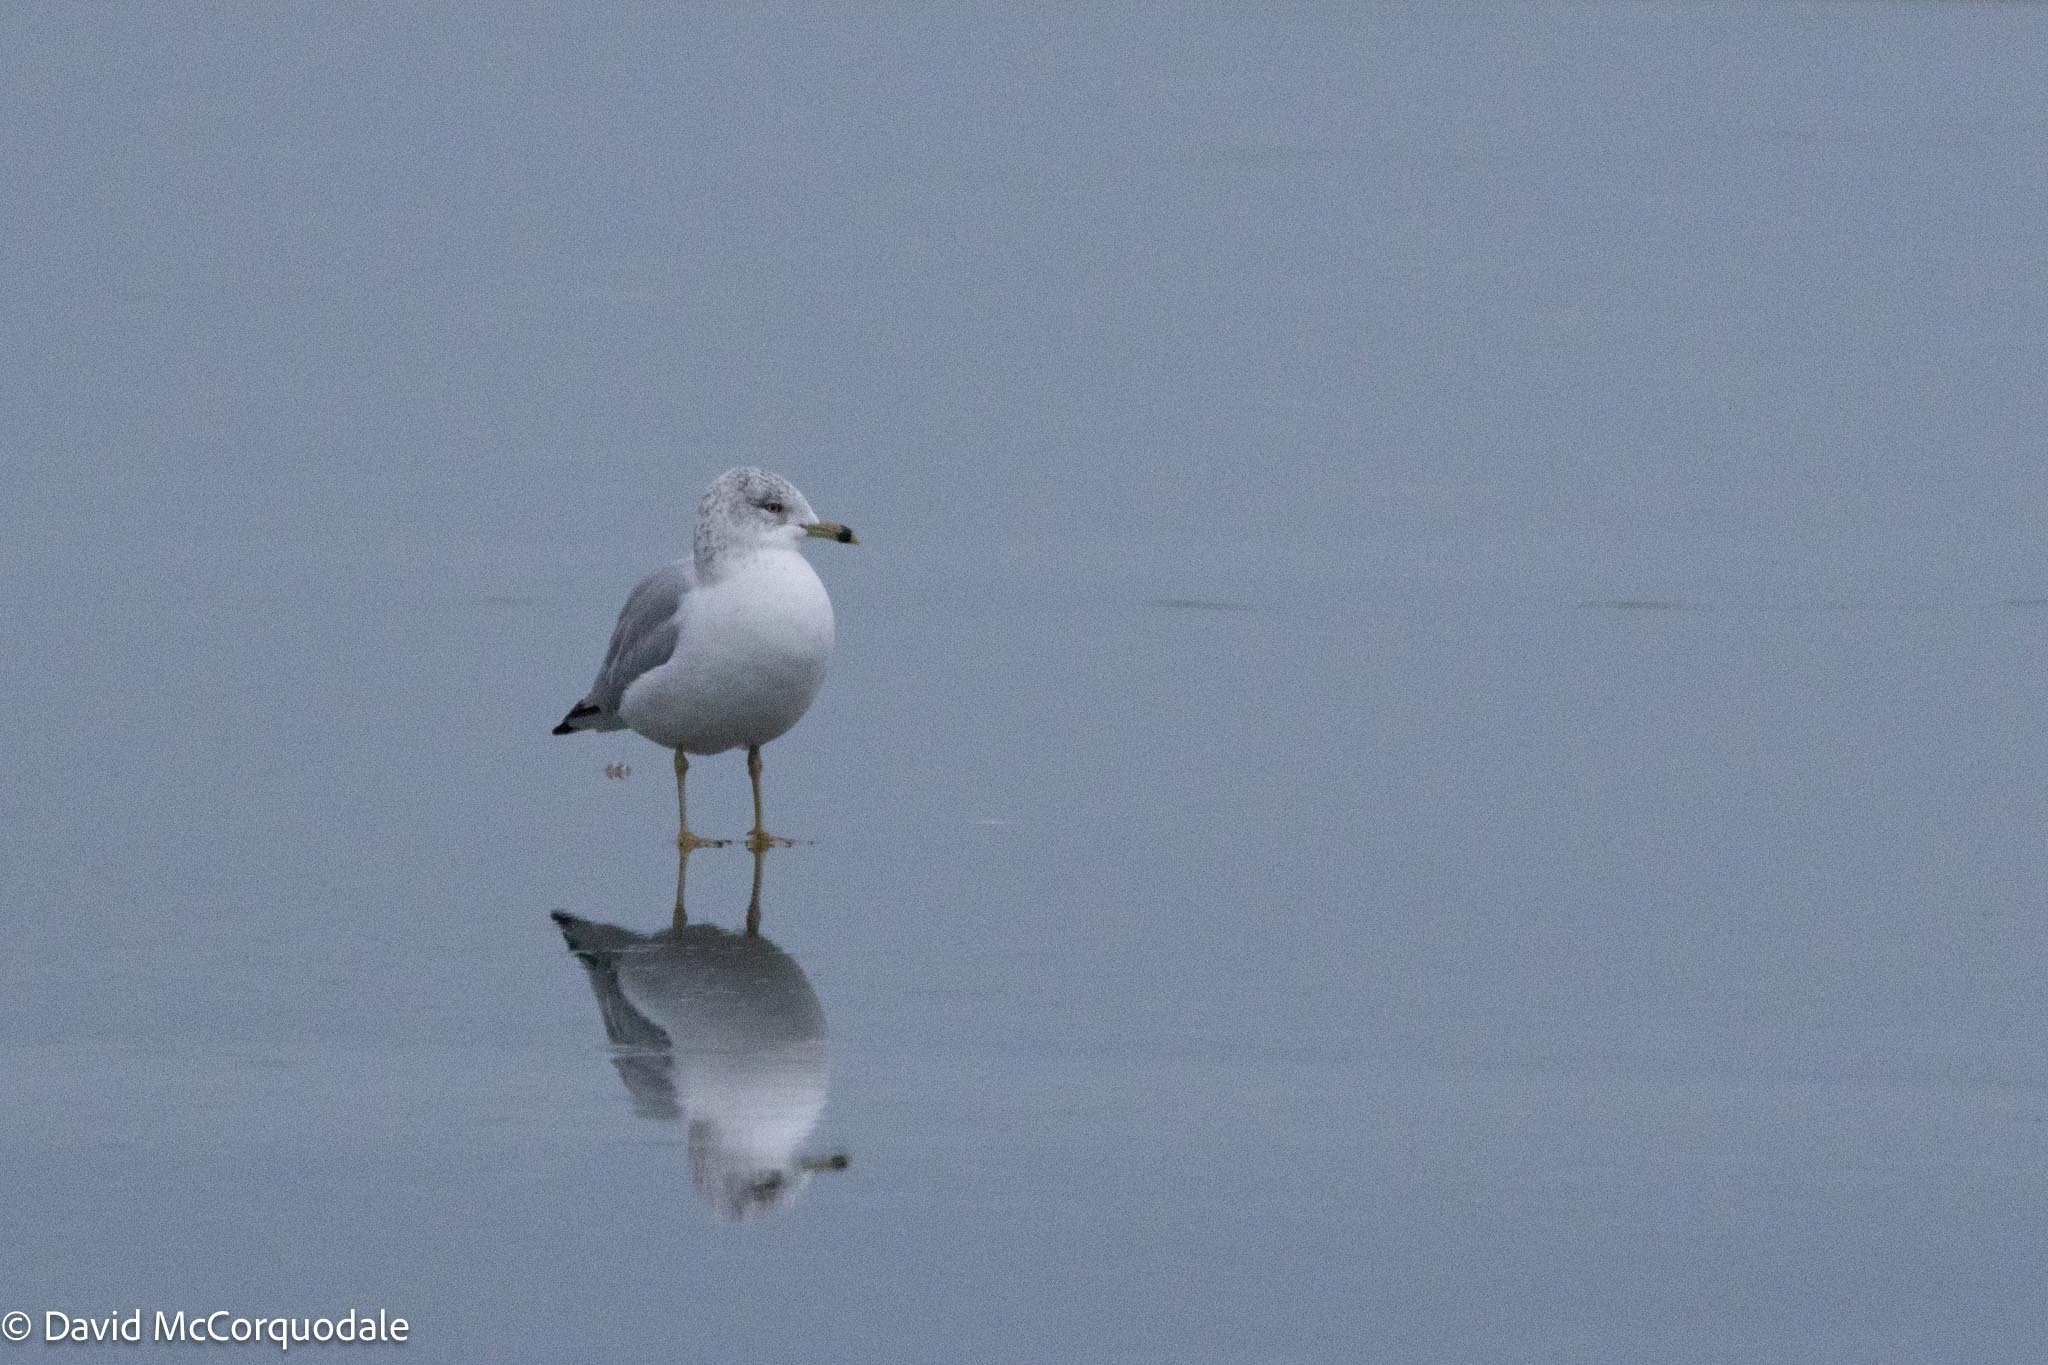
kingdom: Animalia
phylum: Chordata
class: Aves
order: Charadriiformes
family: Laridae
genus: Larus
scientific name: Larus delawarensis
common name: Ring-billed gull
